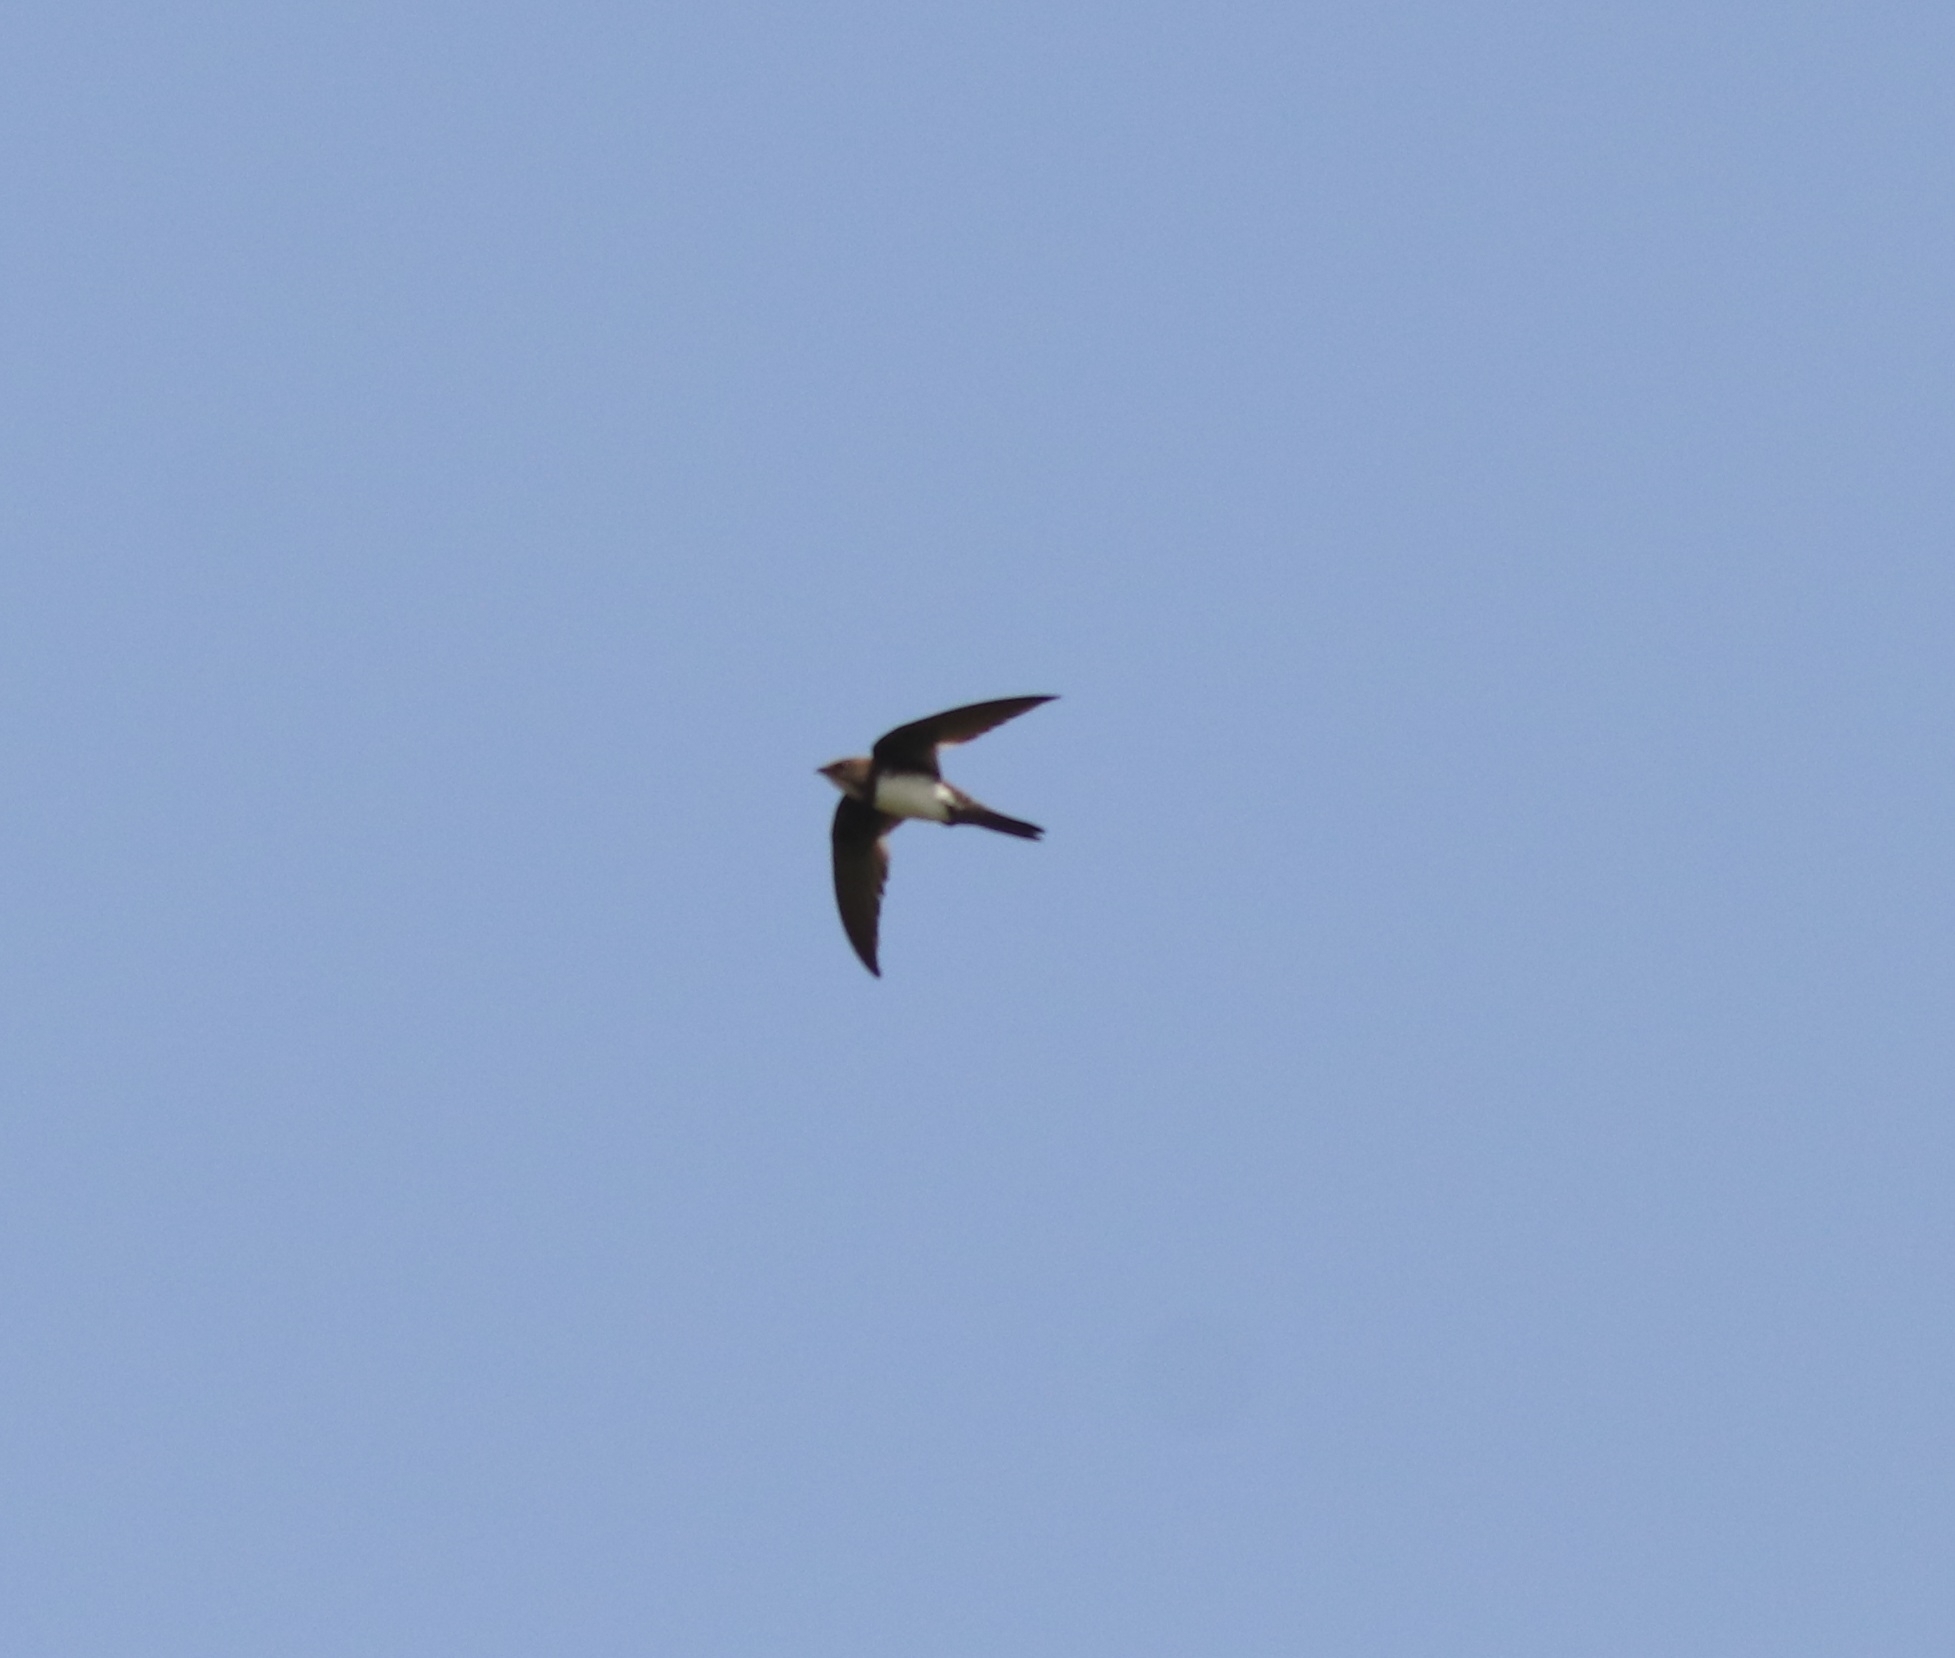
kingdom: Animalia
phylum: Chordata
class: Aves
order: Apodiformes
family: Apodidae
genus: Tachymarptis
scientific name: Tachymarptis melba
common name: Alpine swift
